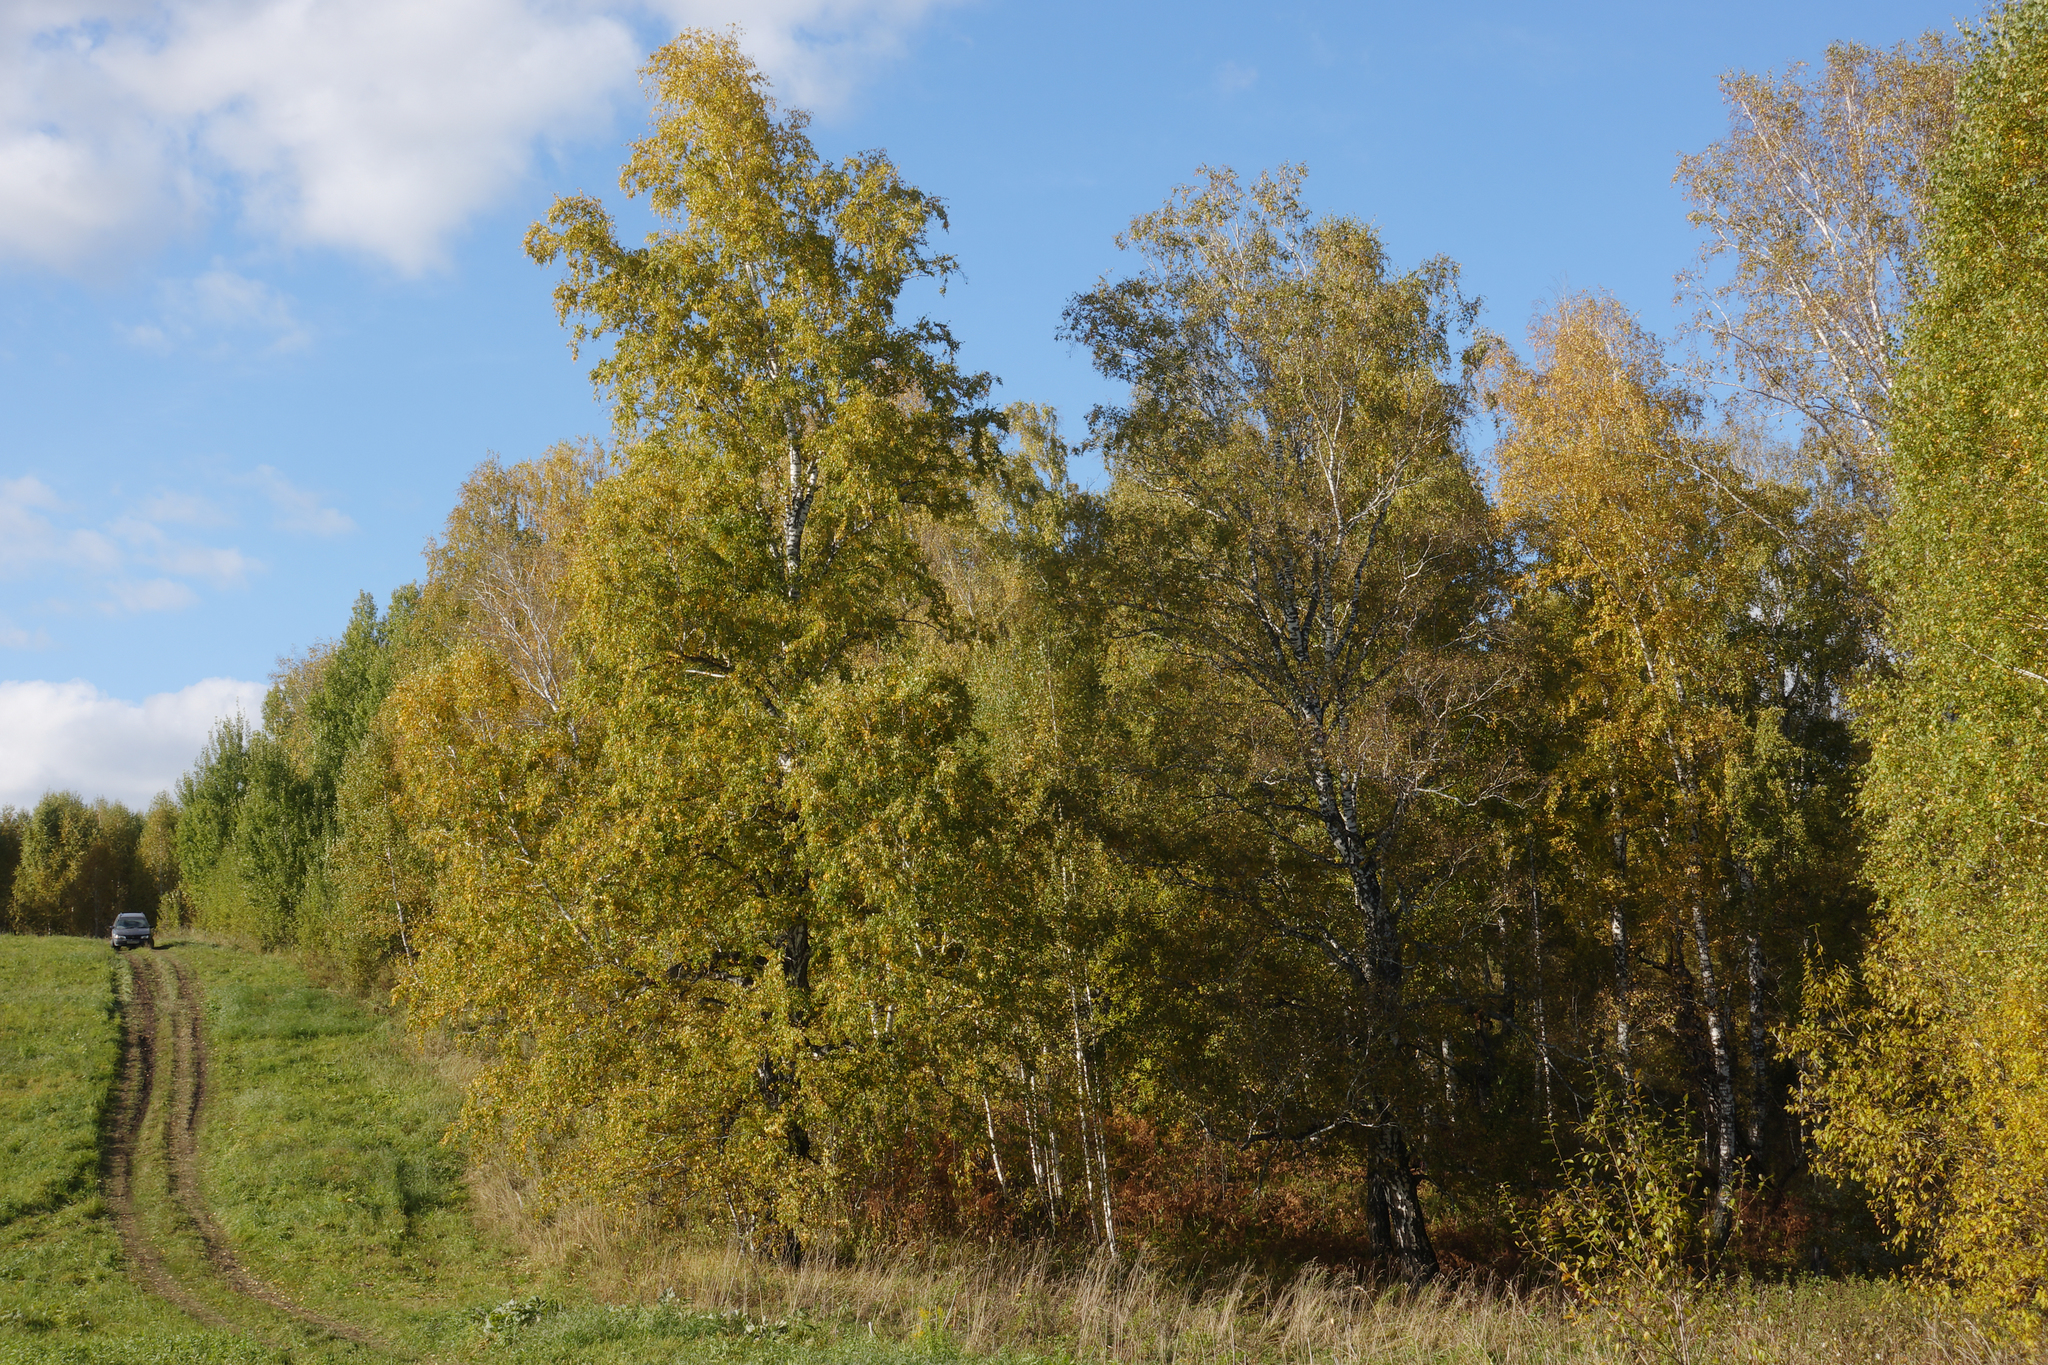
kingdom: Plantae
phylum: Tracheophyta
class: Magnoliopsida
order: Fagales
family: Betulaceae
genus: Betula
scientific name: Betula pendula
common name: Silver birch
